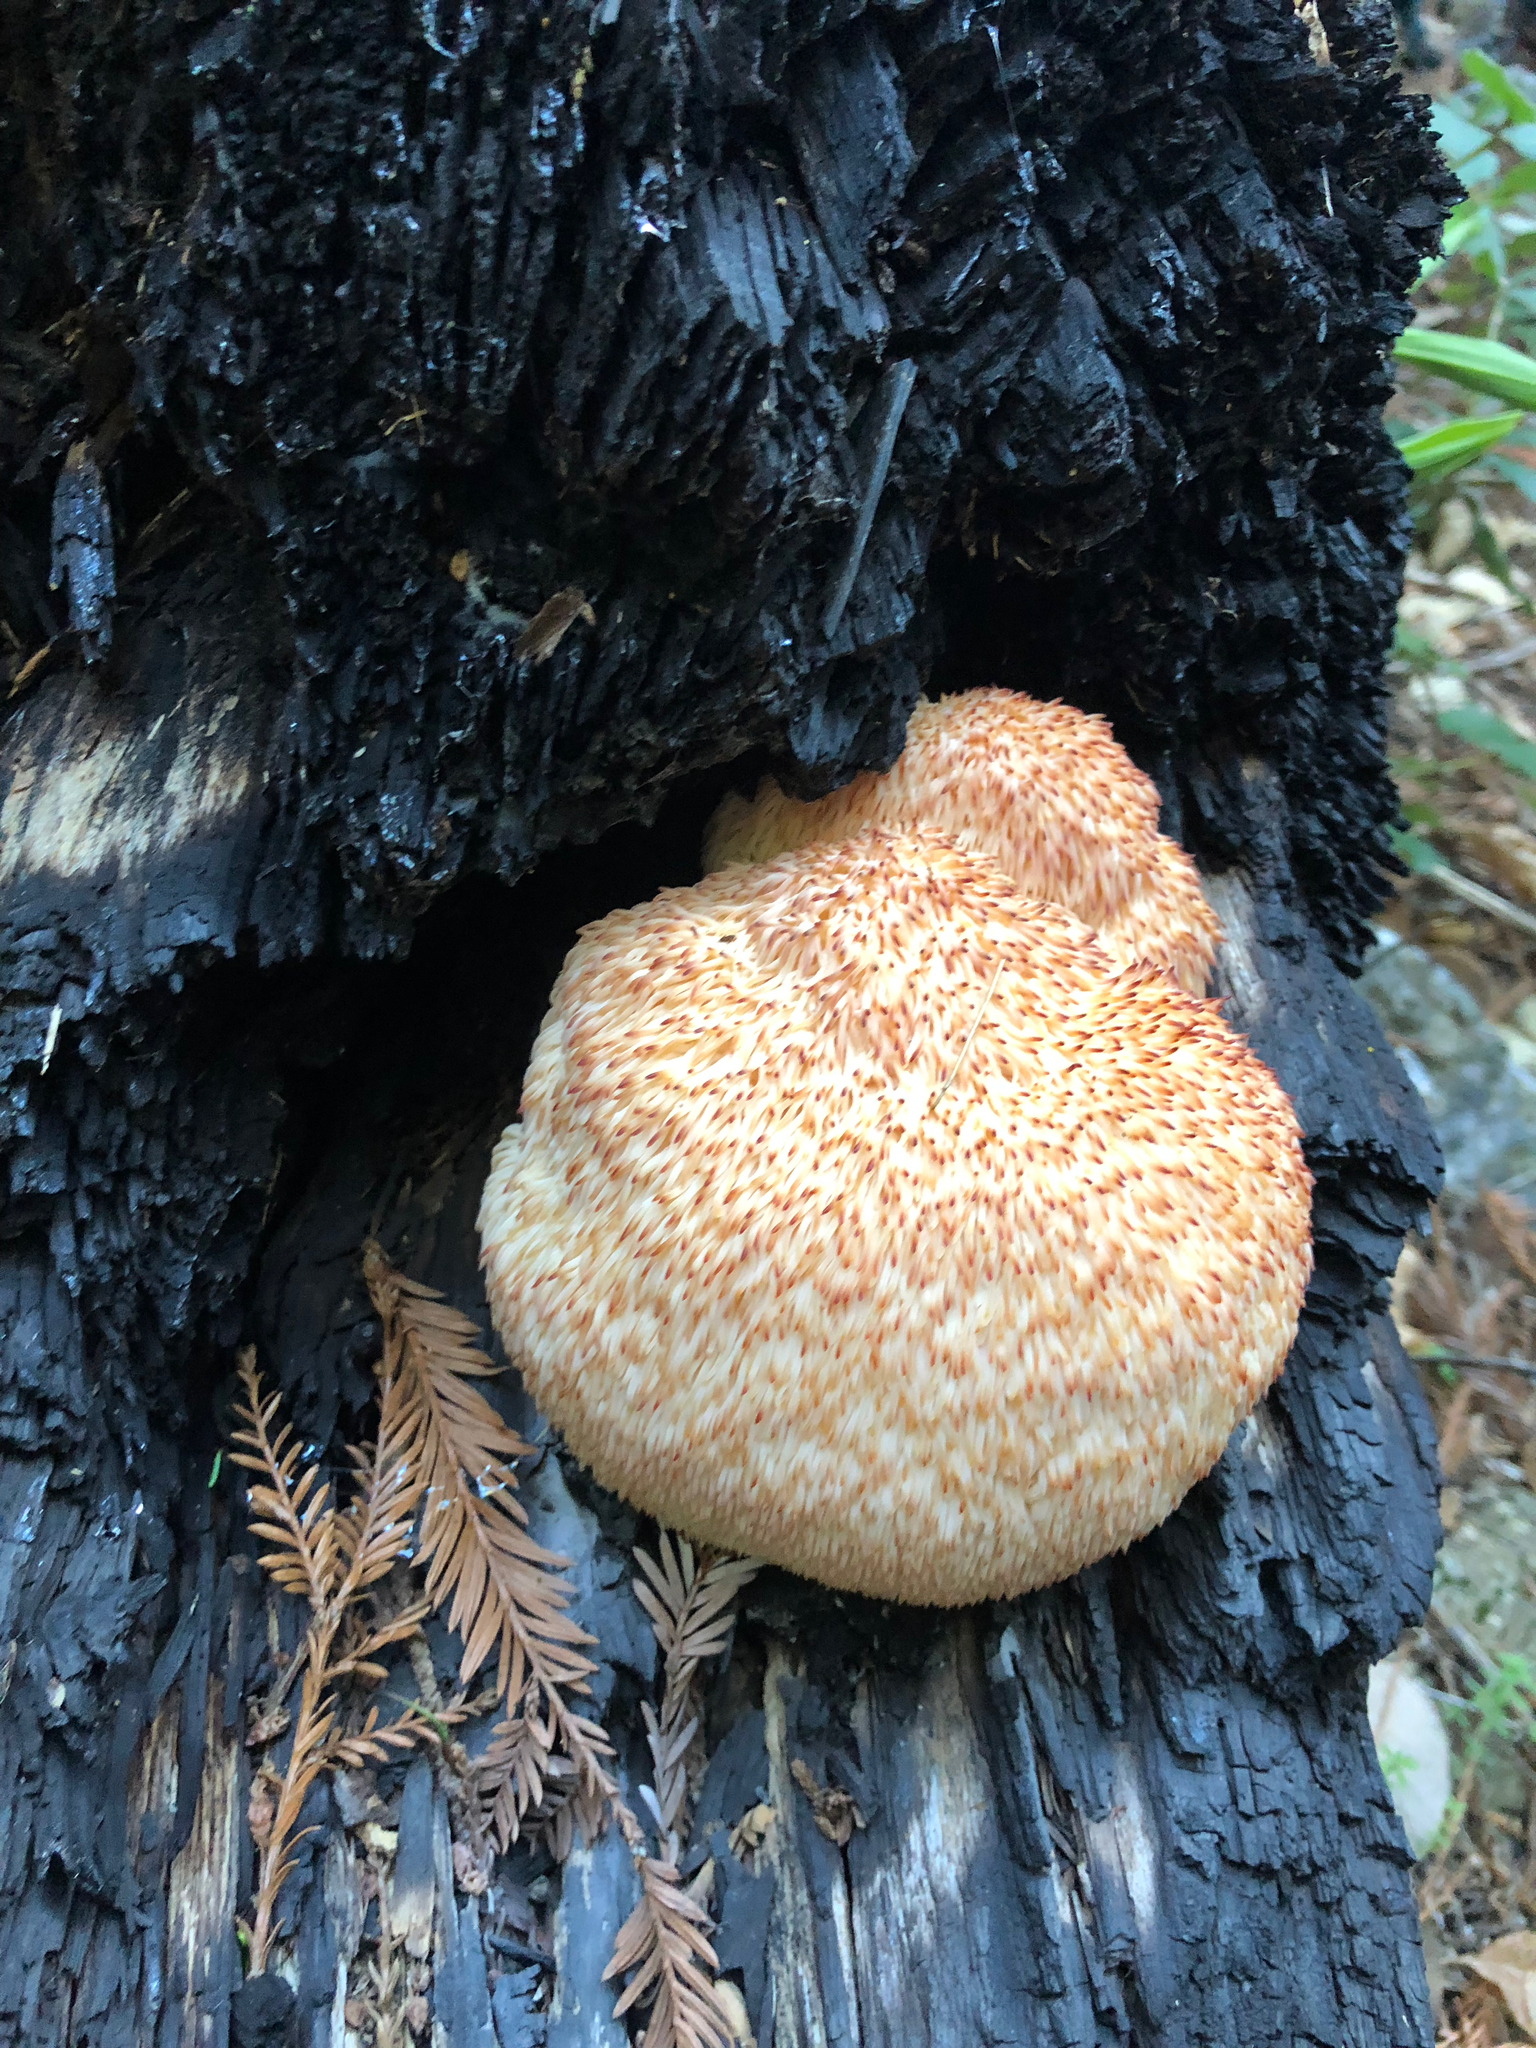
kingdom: Fungi
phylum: Basidiomycota
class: Agaricomycetes
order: Russulales
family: Hericiaceae
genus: Hericium
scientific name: Hericium erinaceus
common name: Bearded tooth
